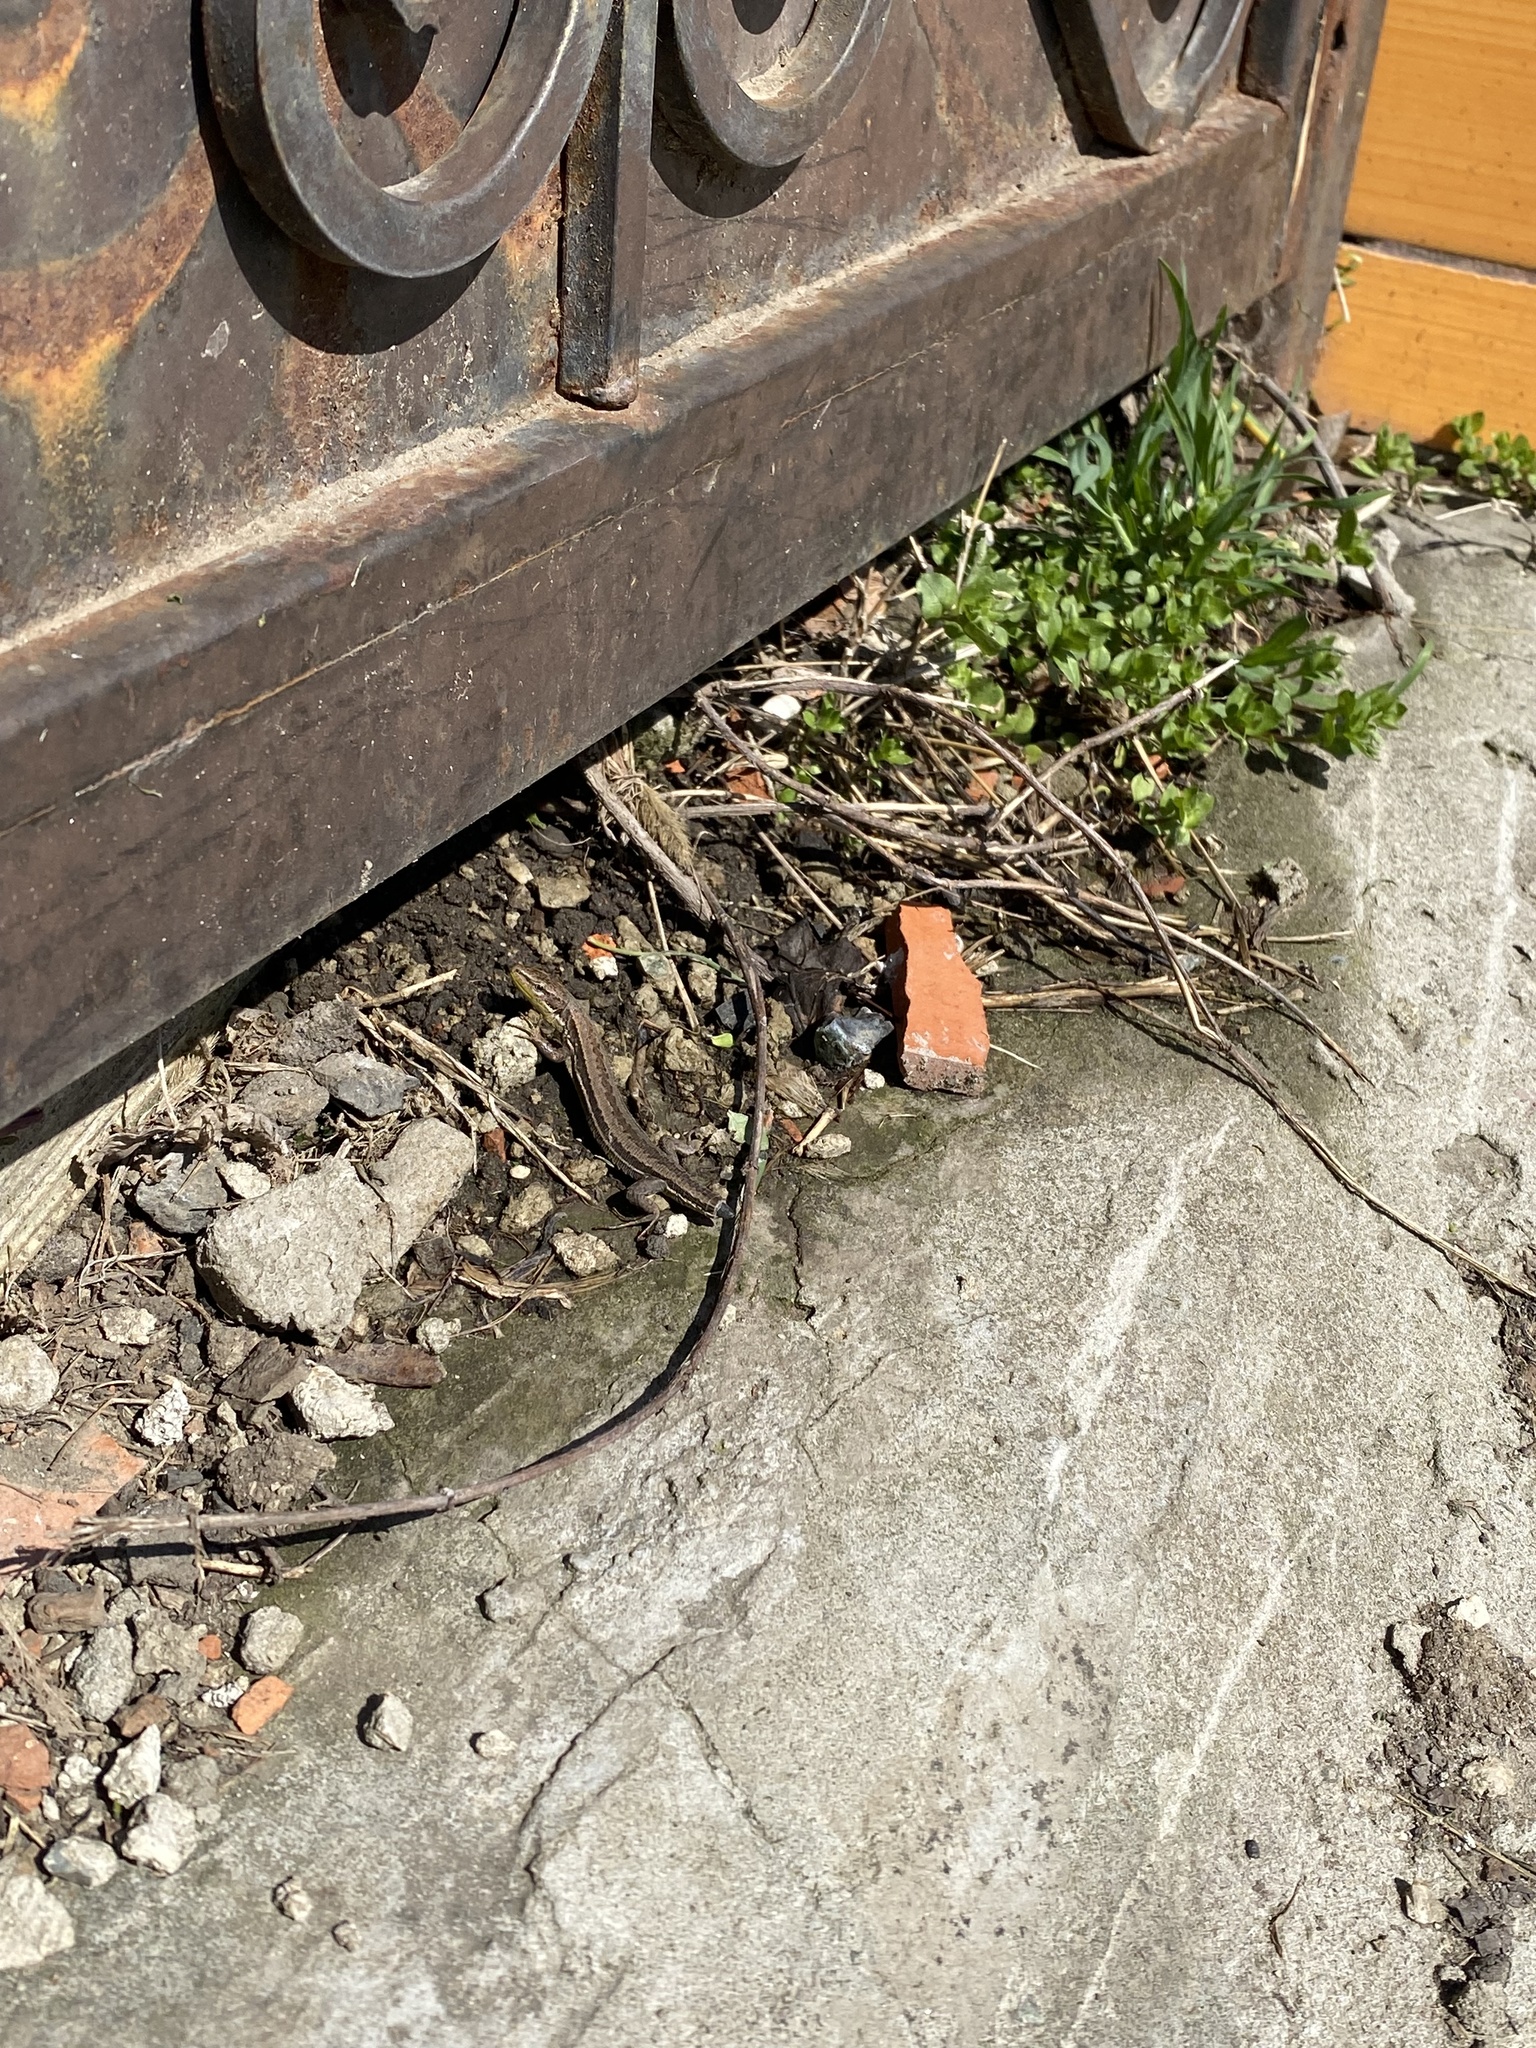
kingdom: Animalia
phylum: Chordata
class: Squamata
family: Lacertidae
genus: Darevskia
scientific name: Darevskia praticola
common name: Meadow lizard
